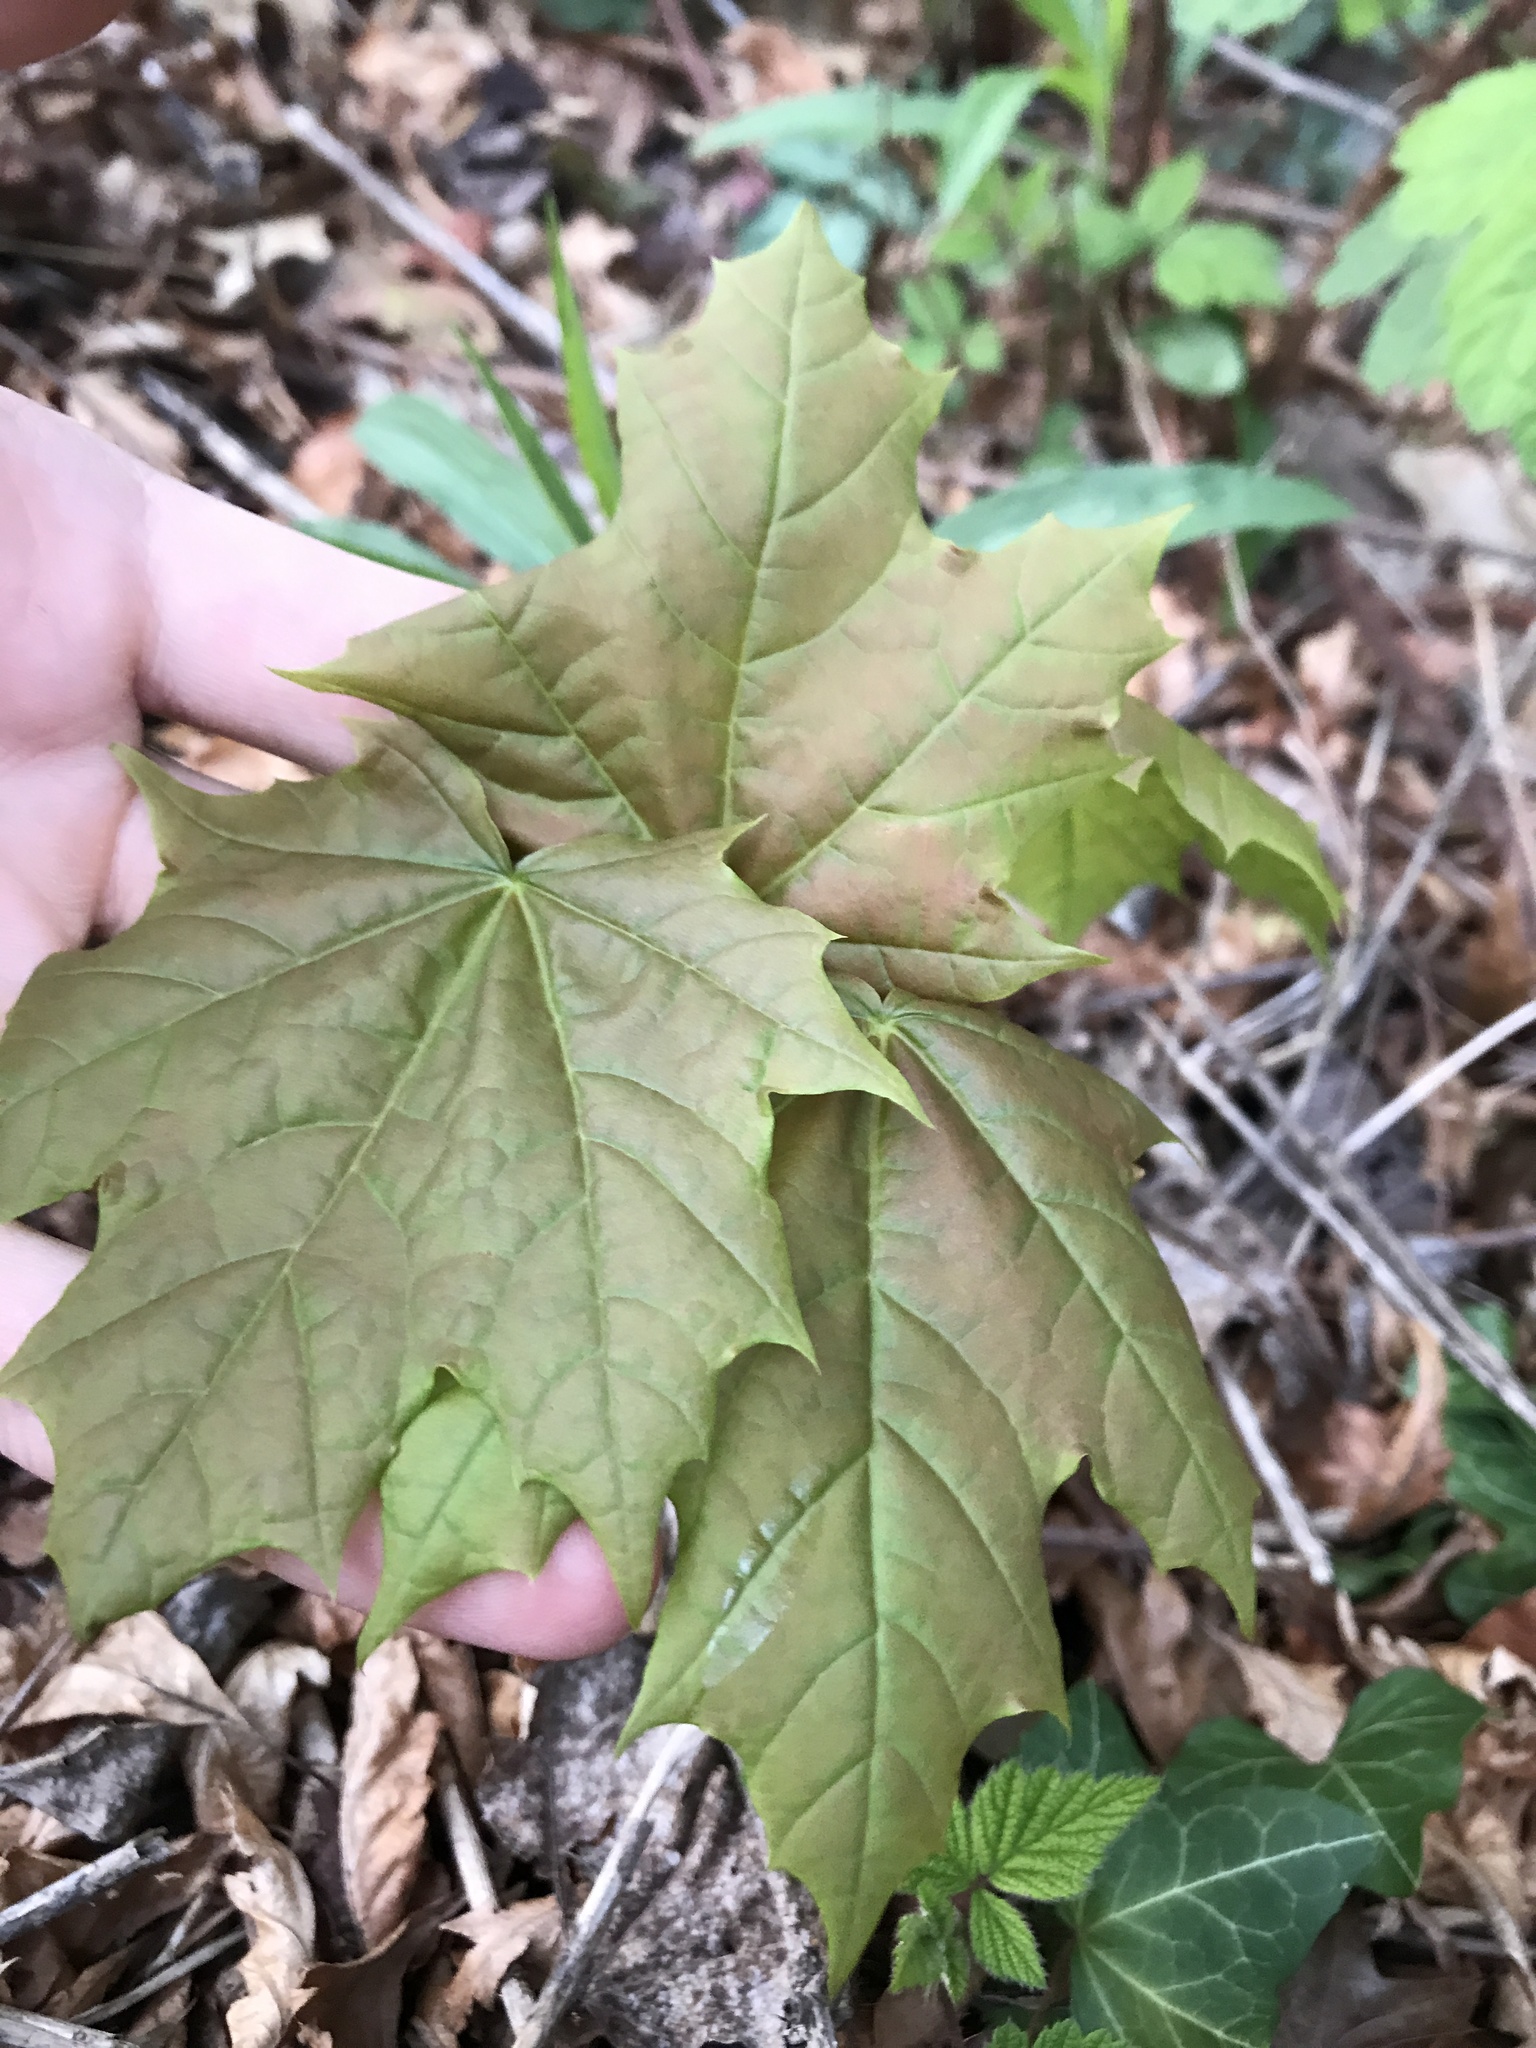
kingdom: Plantae
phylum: Tracheophyta
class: Magnoliopsida
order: Sapindales
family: Sapindaceae
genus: Acer
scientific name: Acer platanoides
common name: Norway maple
